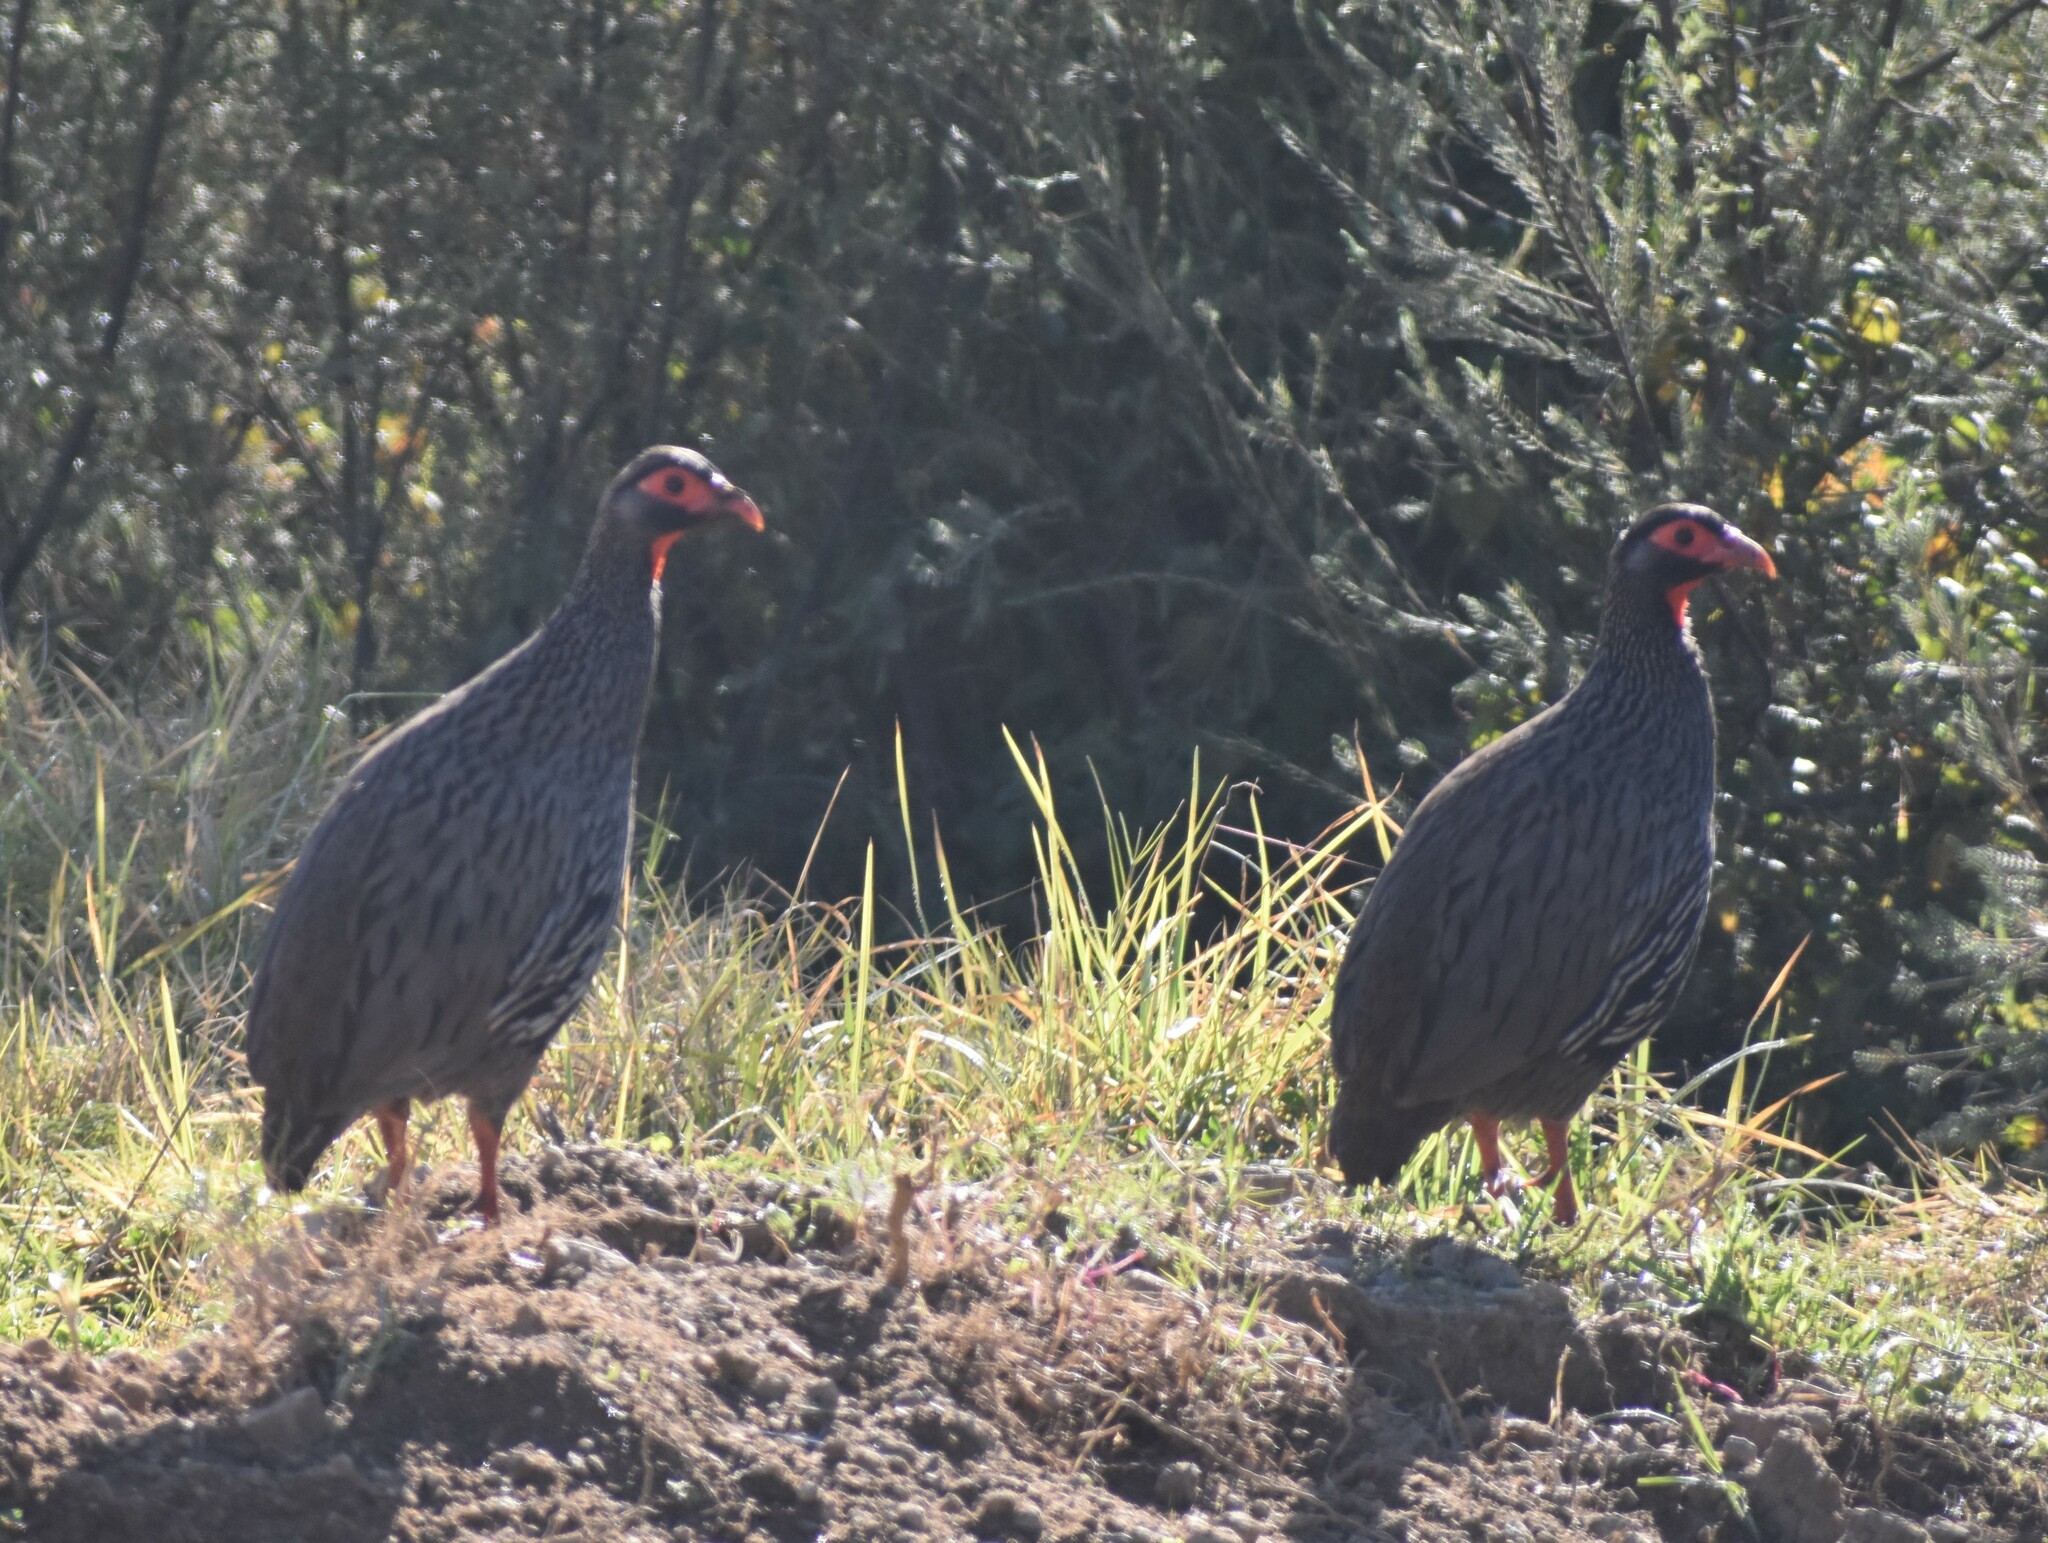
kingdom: Animalia
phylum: Chordata
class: Aves
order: Galliformes
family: Phasianidae
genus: Pternistis
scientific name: Pternistis afer
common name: Red-necked spurfowl
